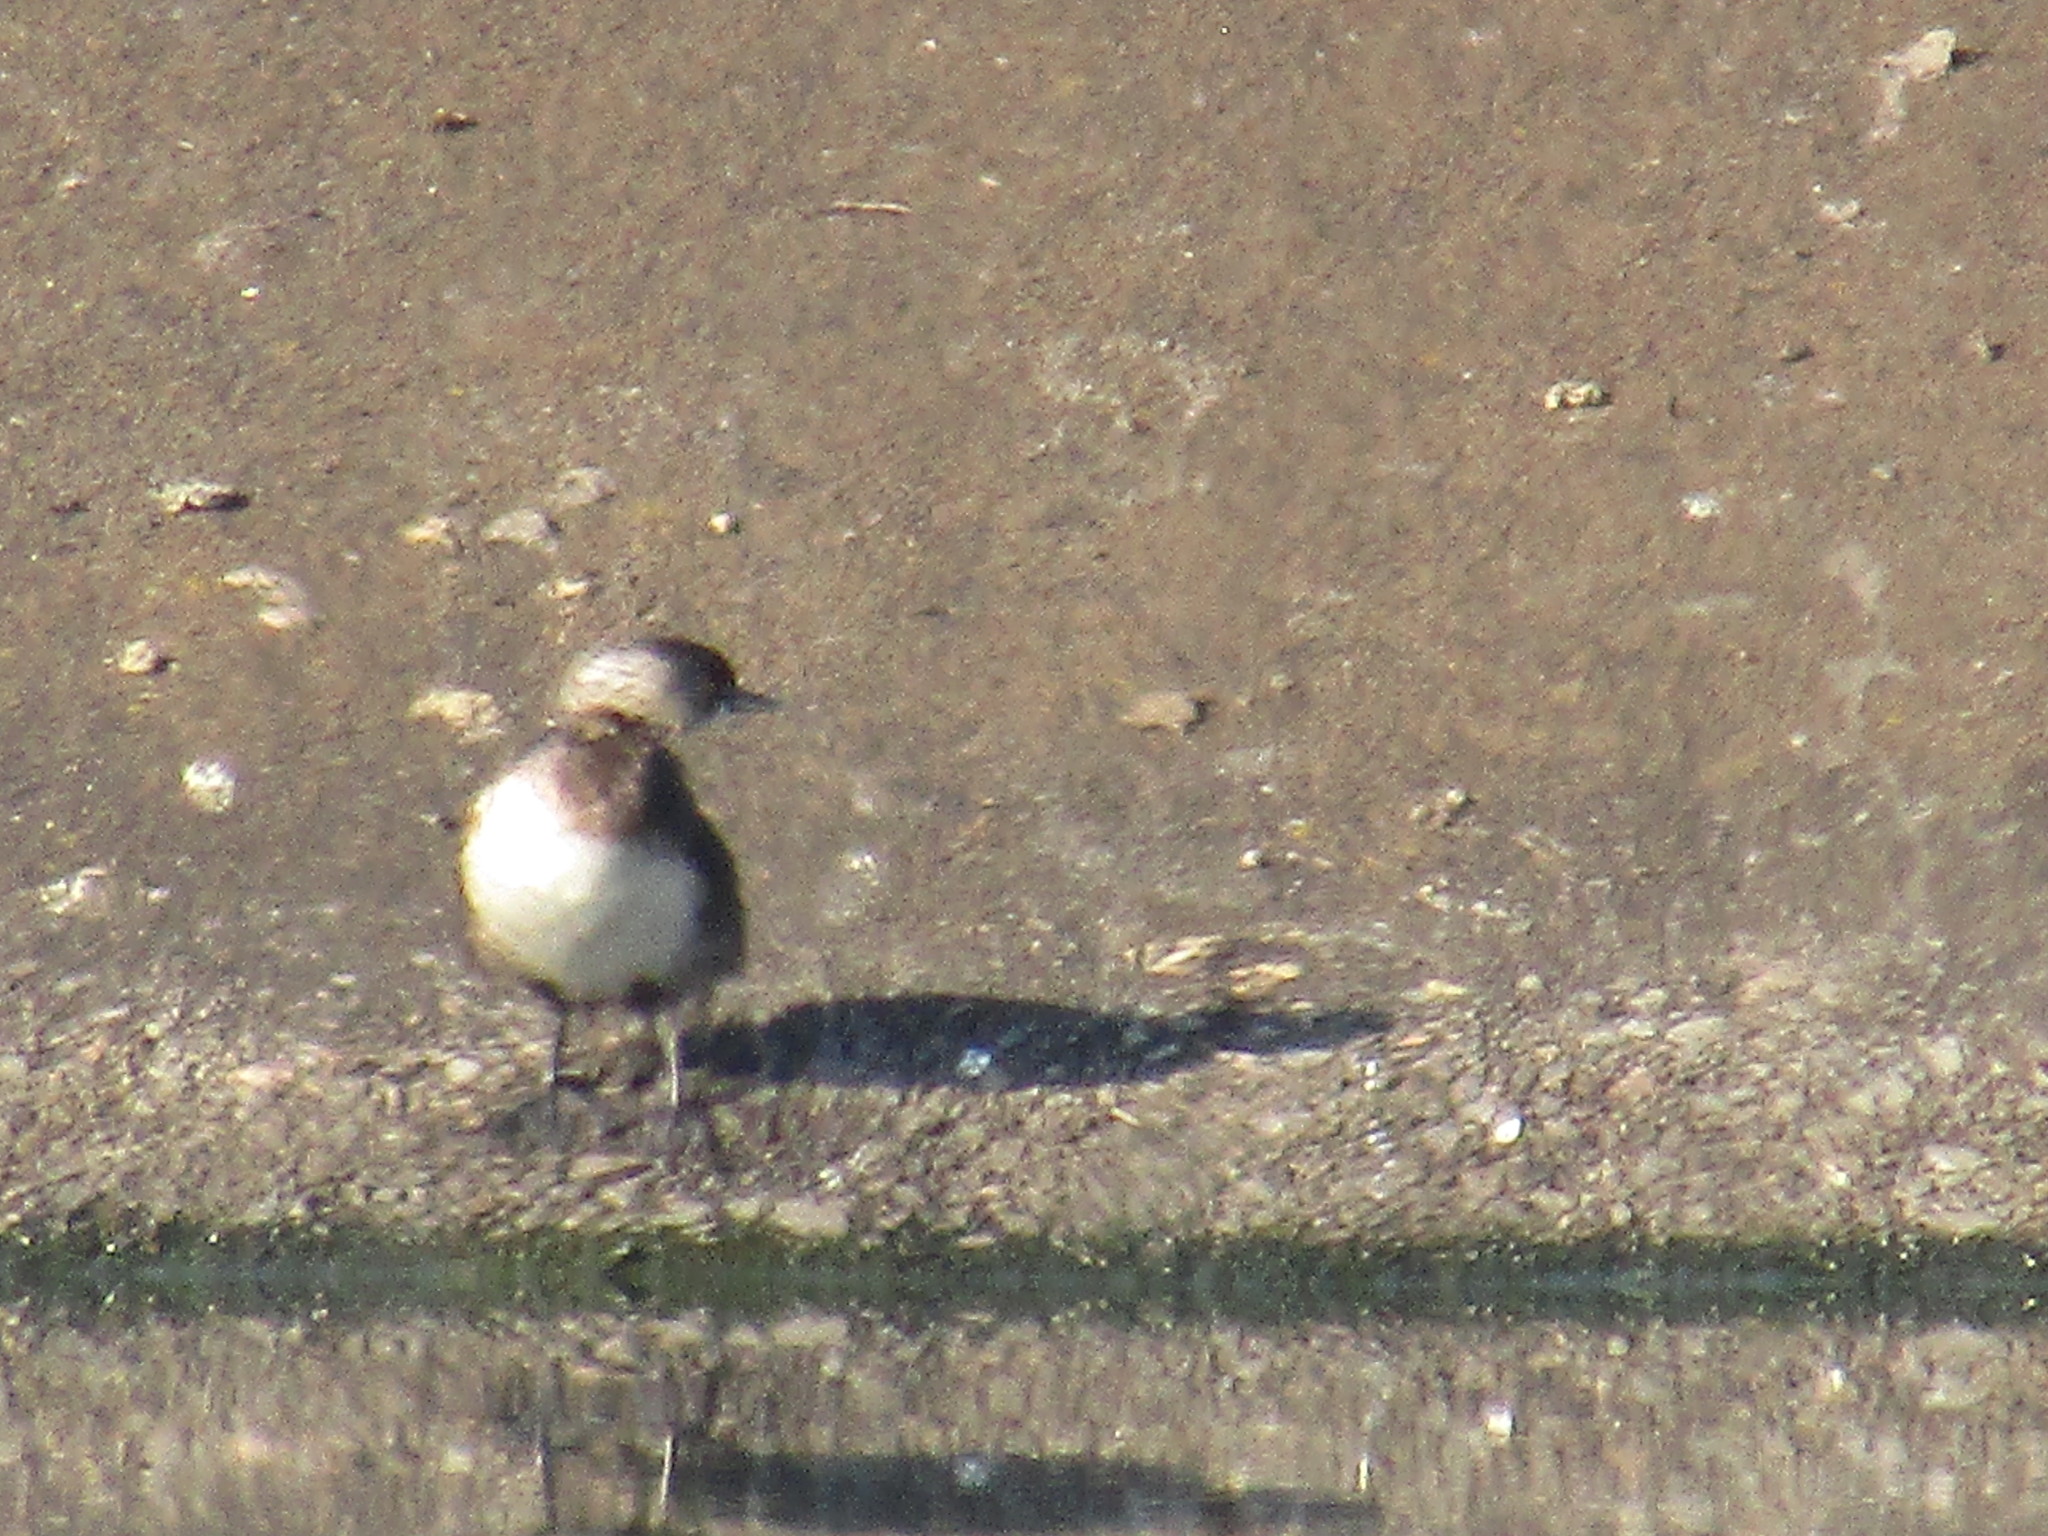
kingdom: Animalia
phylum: Chordata
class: Aves
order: Podicipediformes
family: Podicipedidae
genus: Tachybaptus
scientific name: Tachybaptus dominicus
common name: Least grebe
